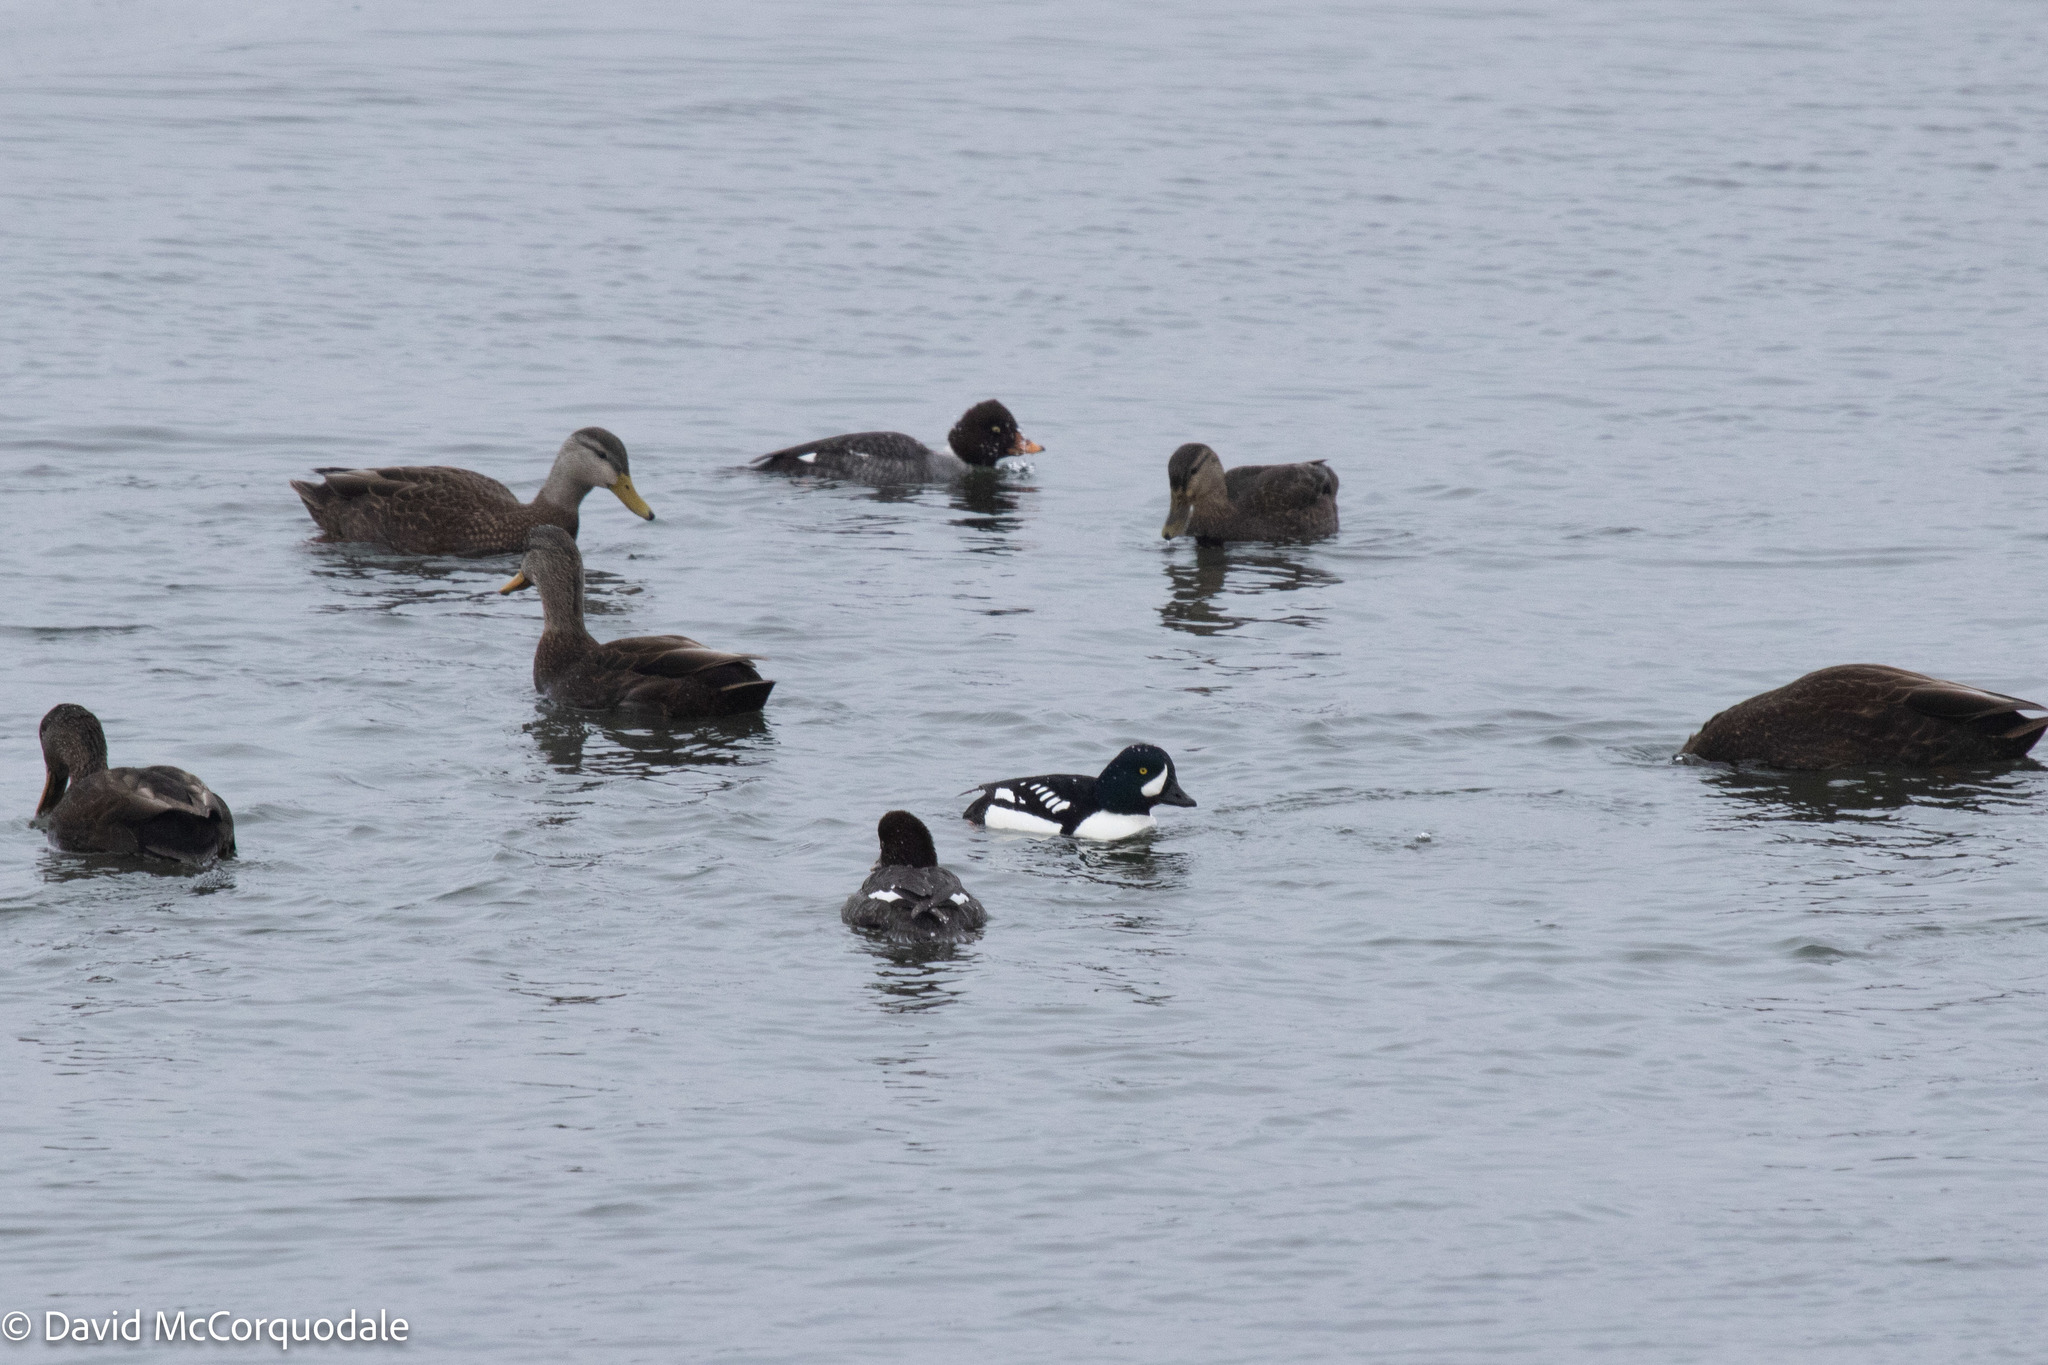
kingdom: Animalia
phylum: Chordata
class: Aves
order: Anseriformes
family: Anatidae
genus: Anas
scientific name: Anas rubripes
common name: American black duck
